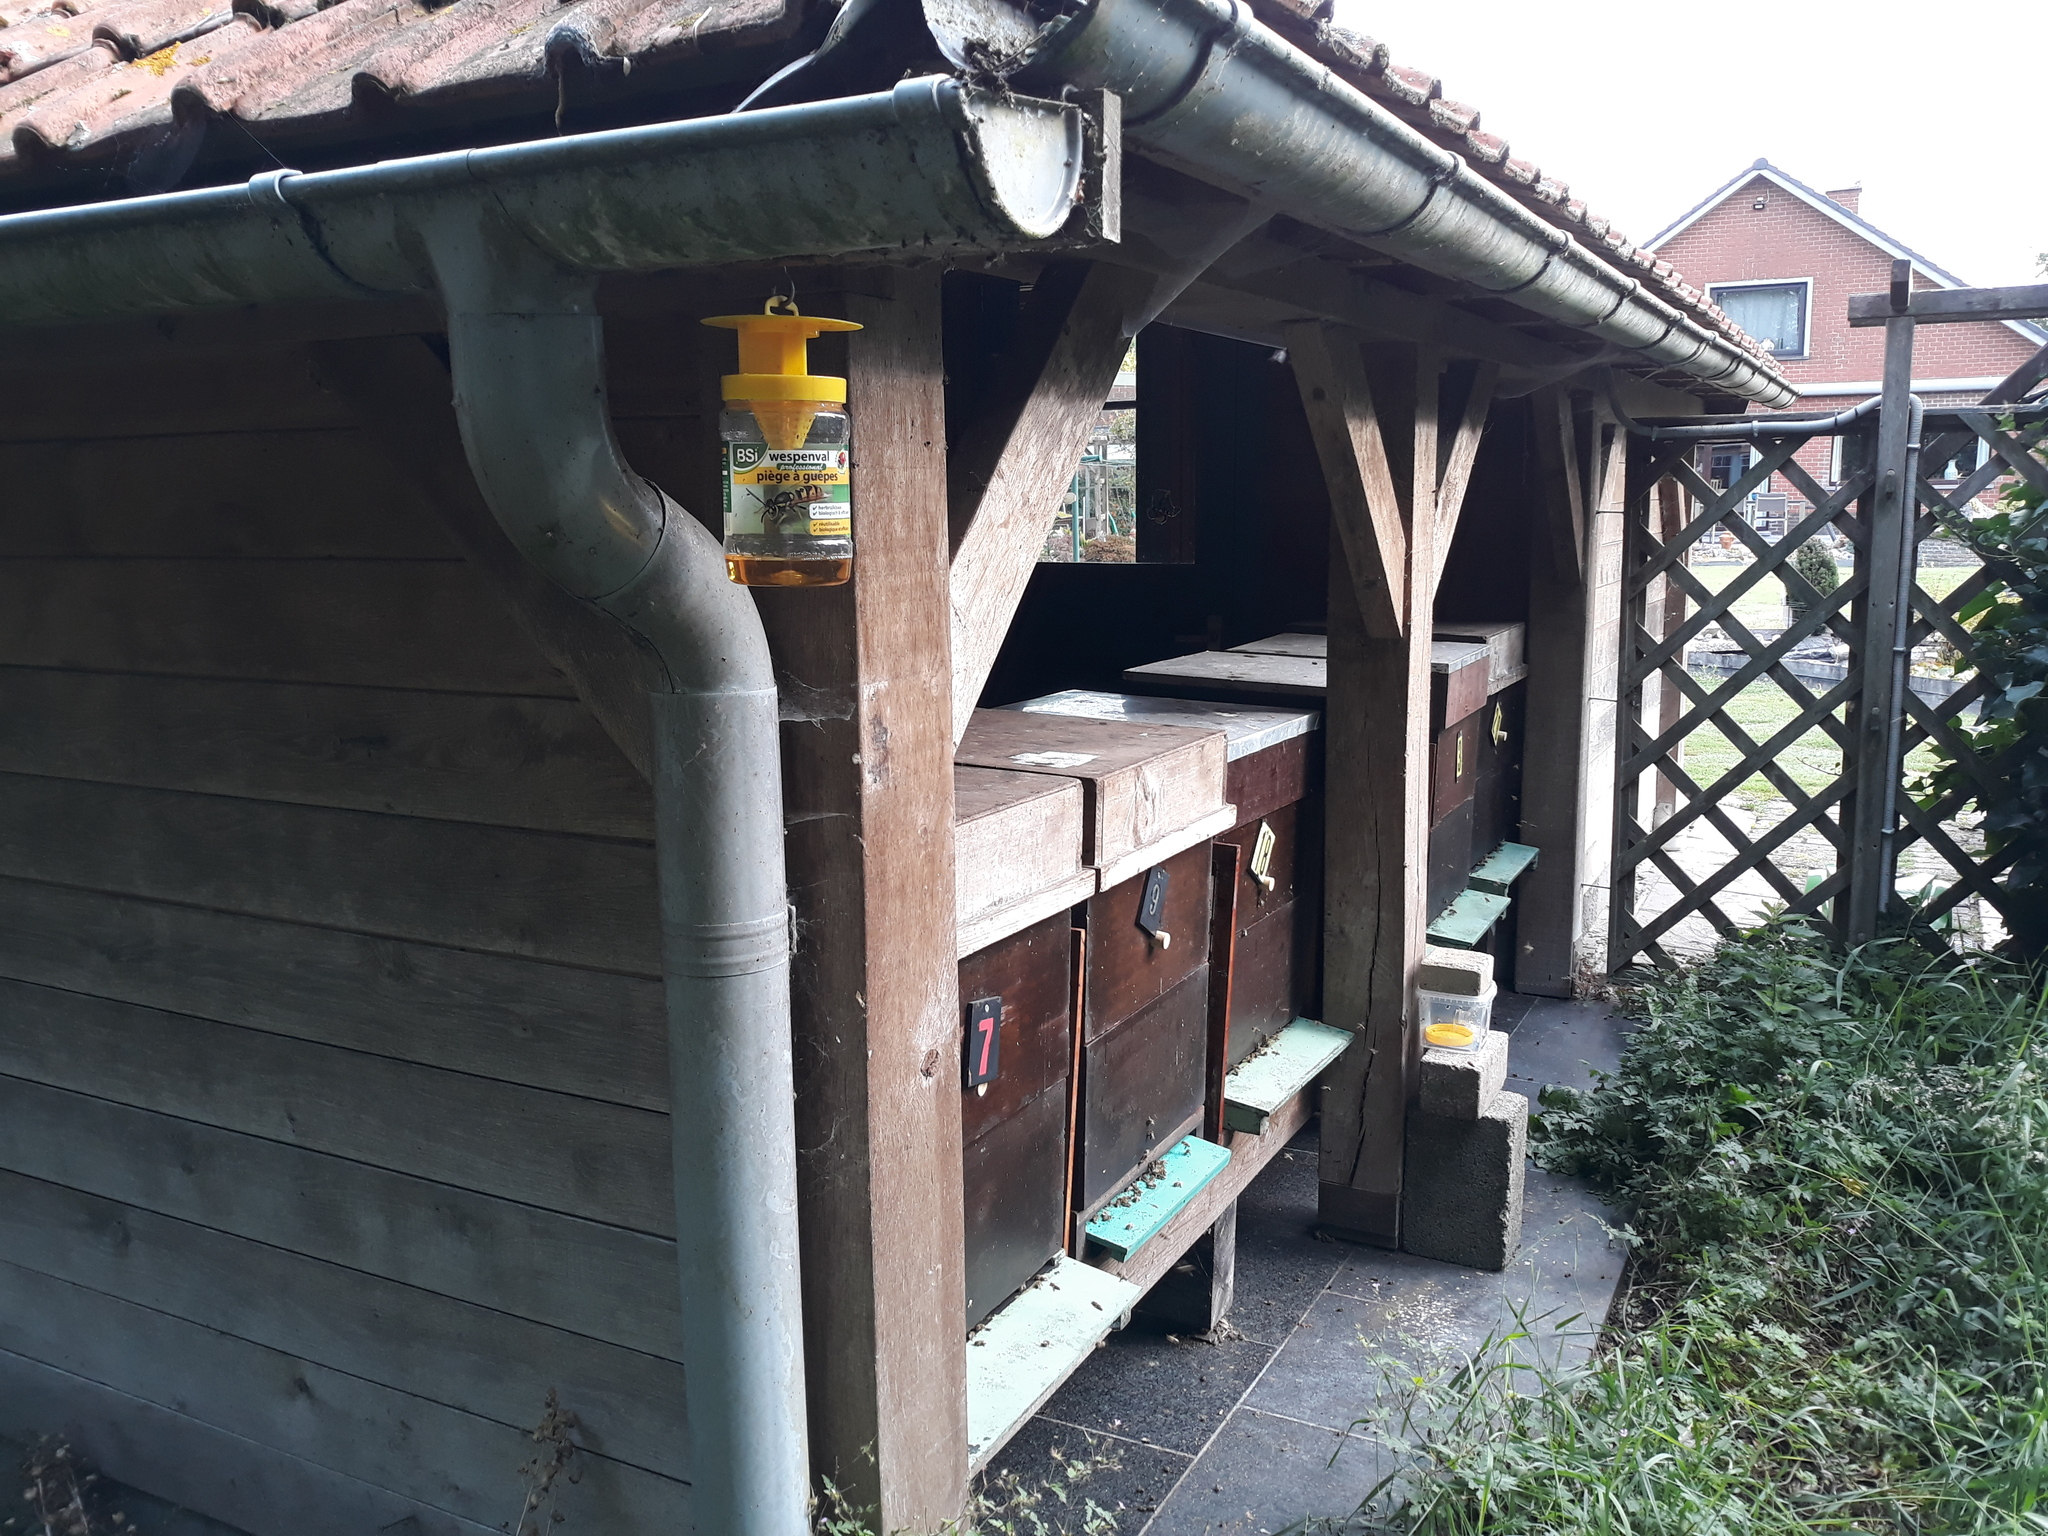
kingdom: Animalia
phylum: Arthropoda
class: Insecta
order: Hymenoptera
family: Vespidae
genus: Vespa
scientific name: Vespa velutina
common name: Asian hornet
